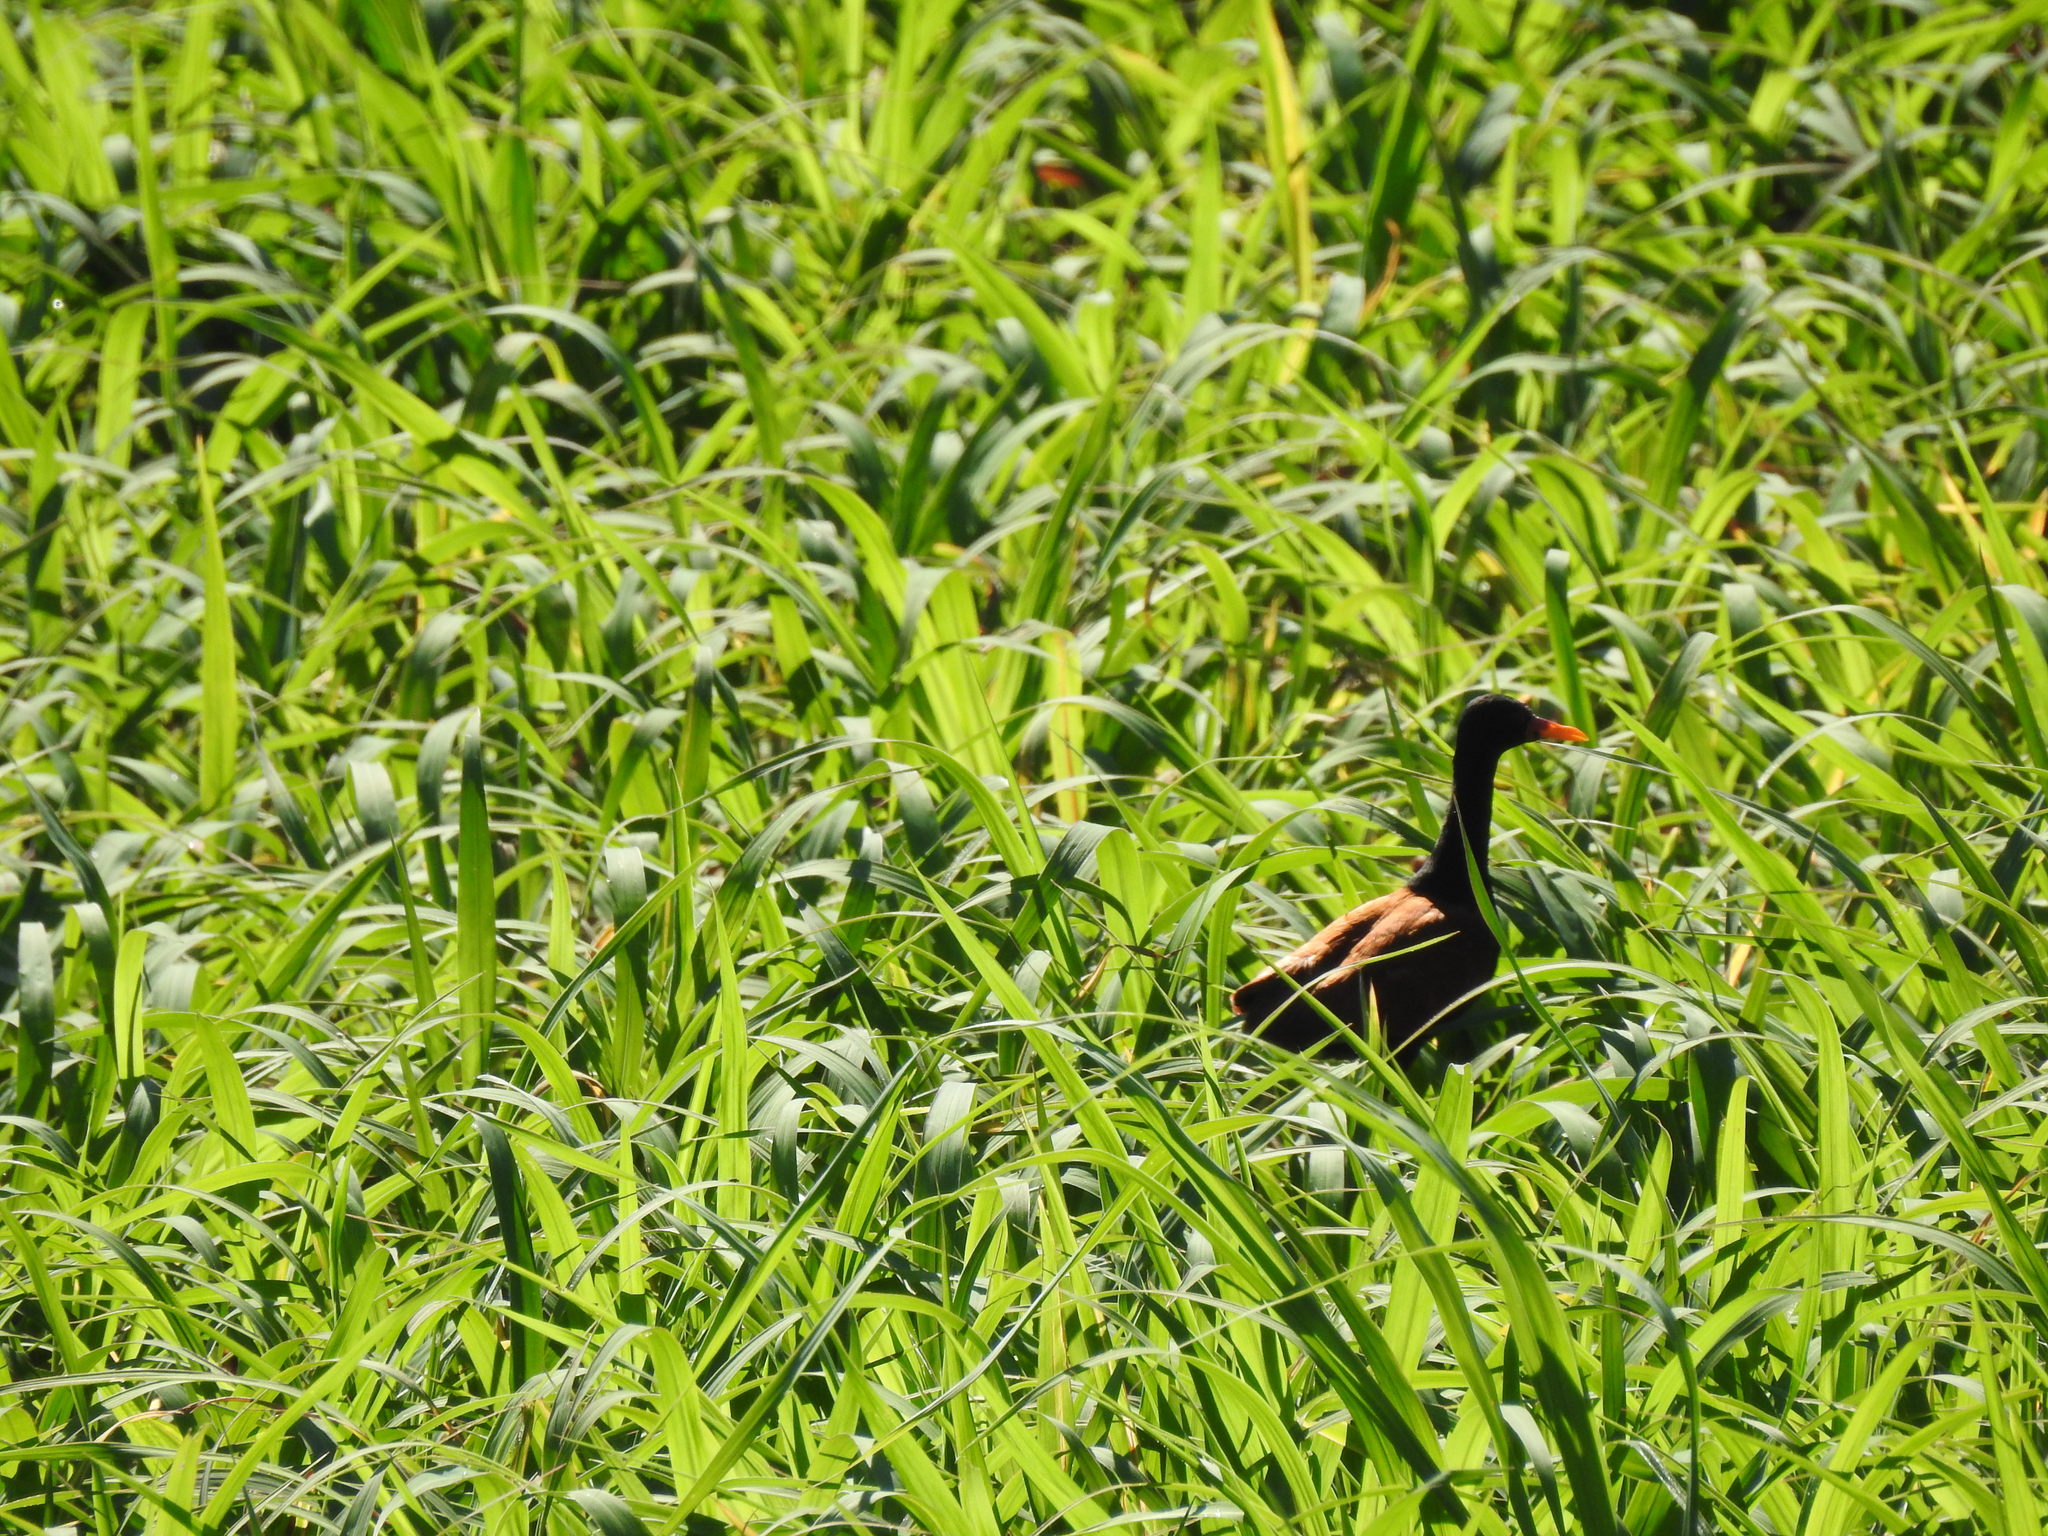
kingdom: Animalia
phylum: Chordata
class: Aves
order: Charadriiformes
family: Jacanidae
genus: Jacana
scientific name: Jacana jacana
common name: Wattled jacana
